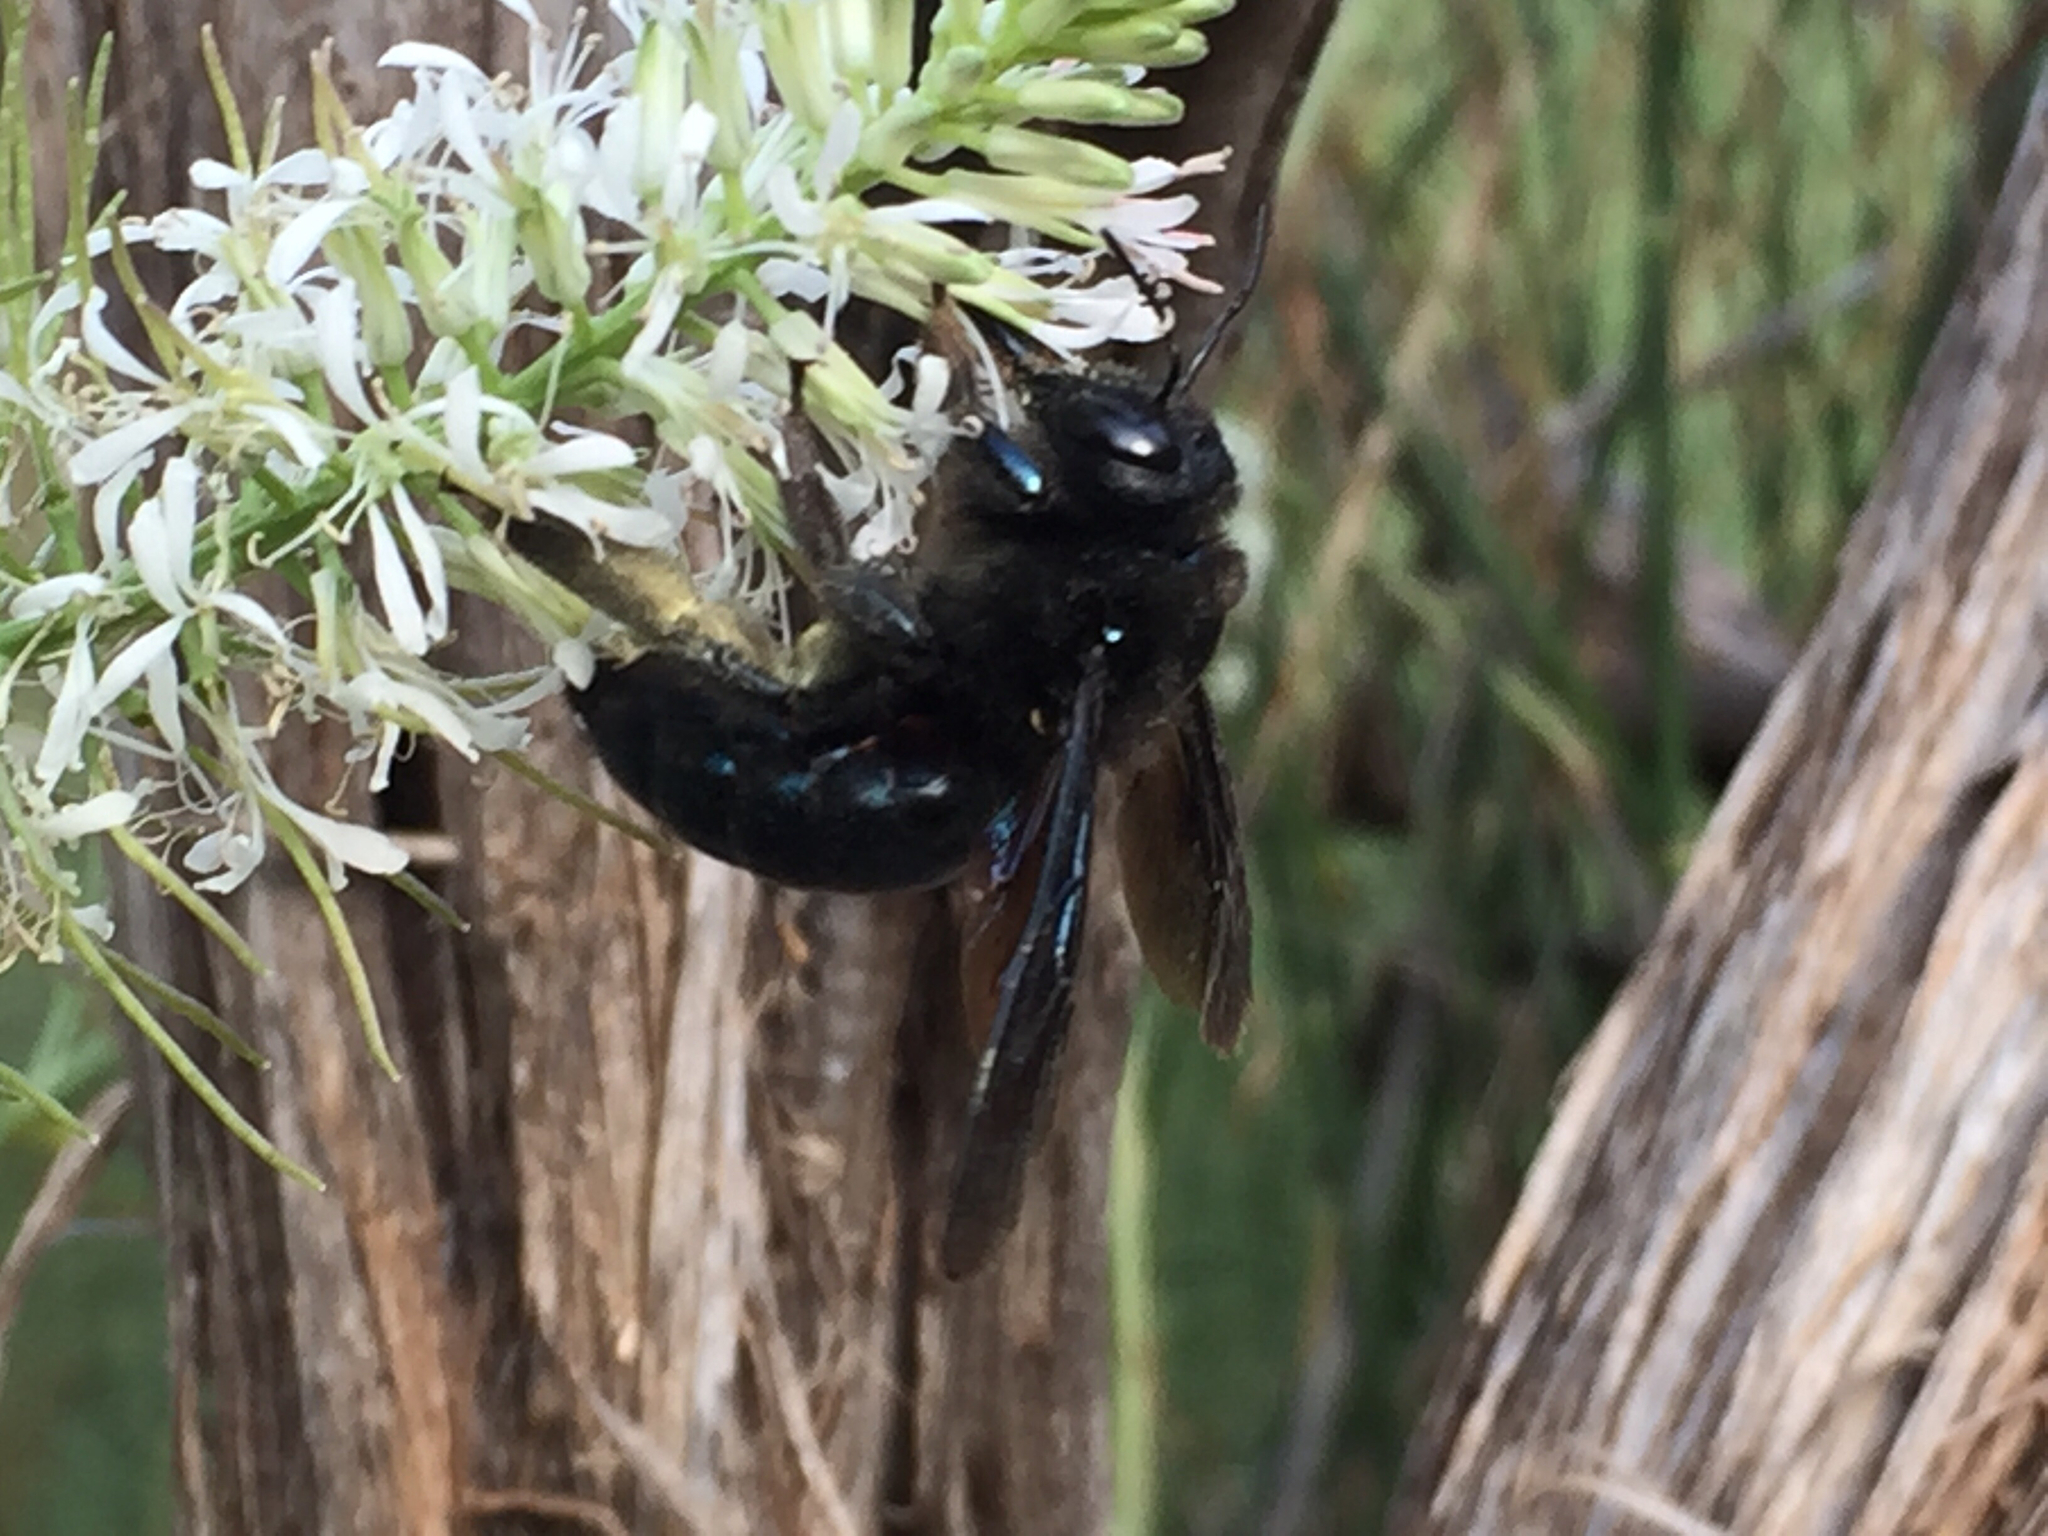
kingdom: Animalia
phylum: Arthropoda
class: Insecta
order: Hymenoptera
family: Apidae
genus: Xylocopa
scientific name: Xylocopa californica
